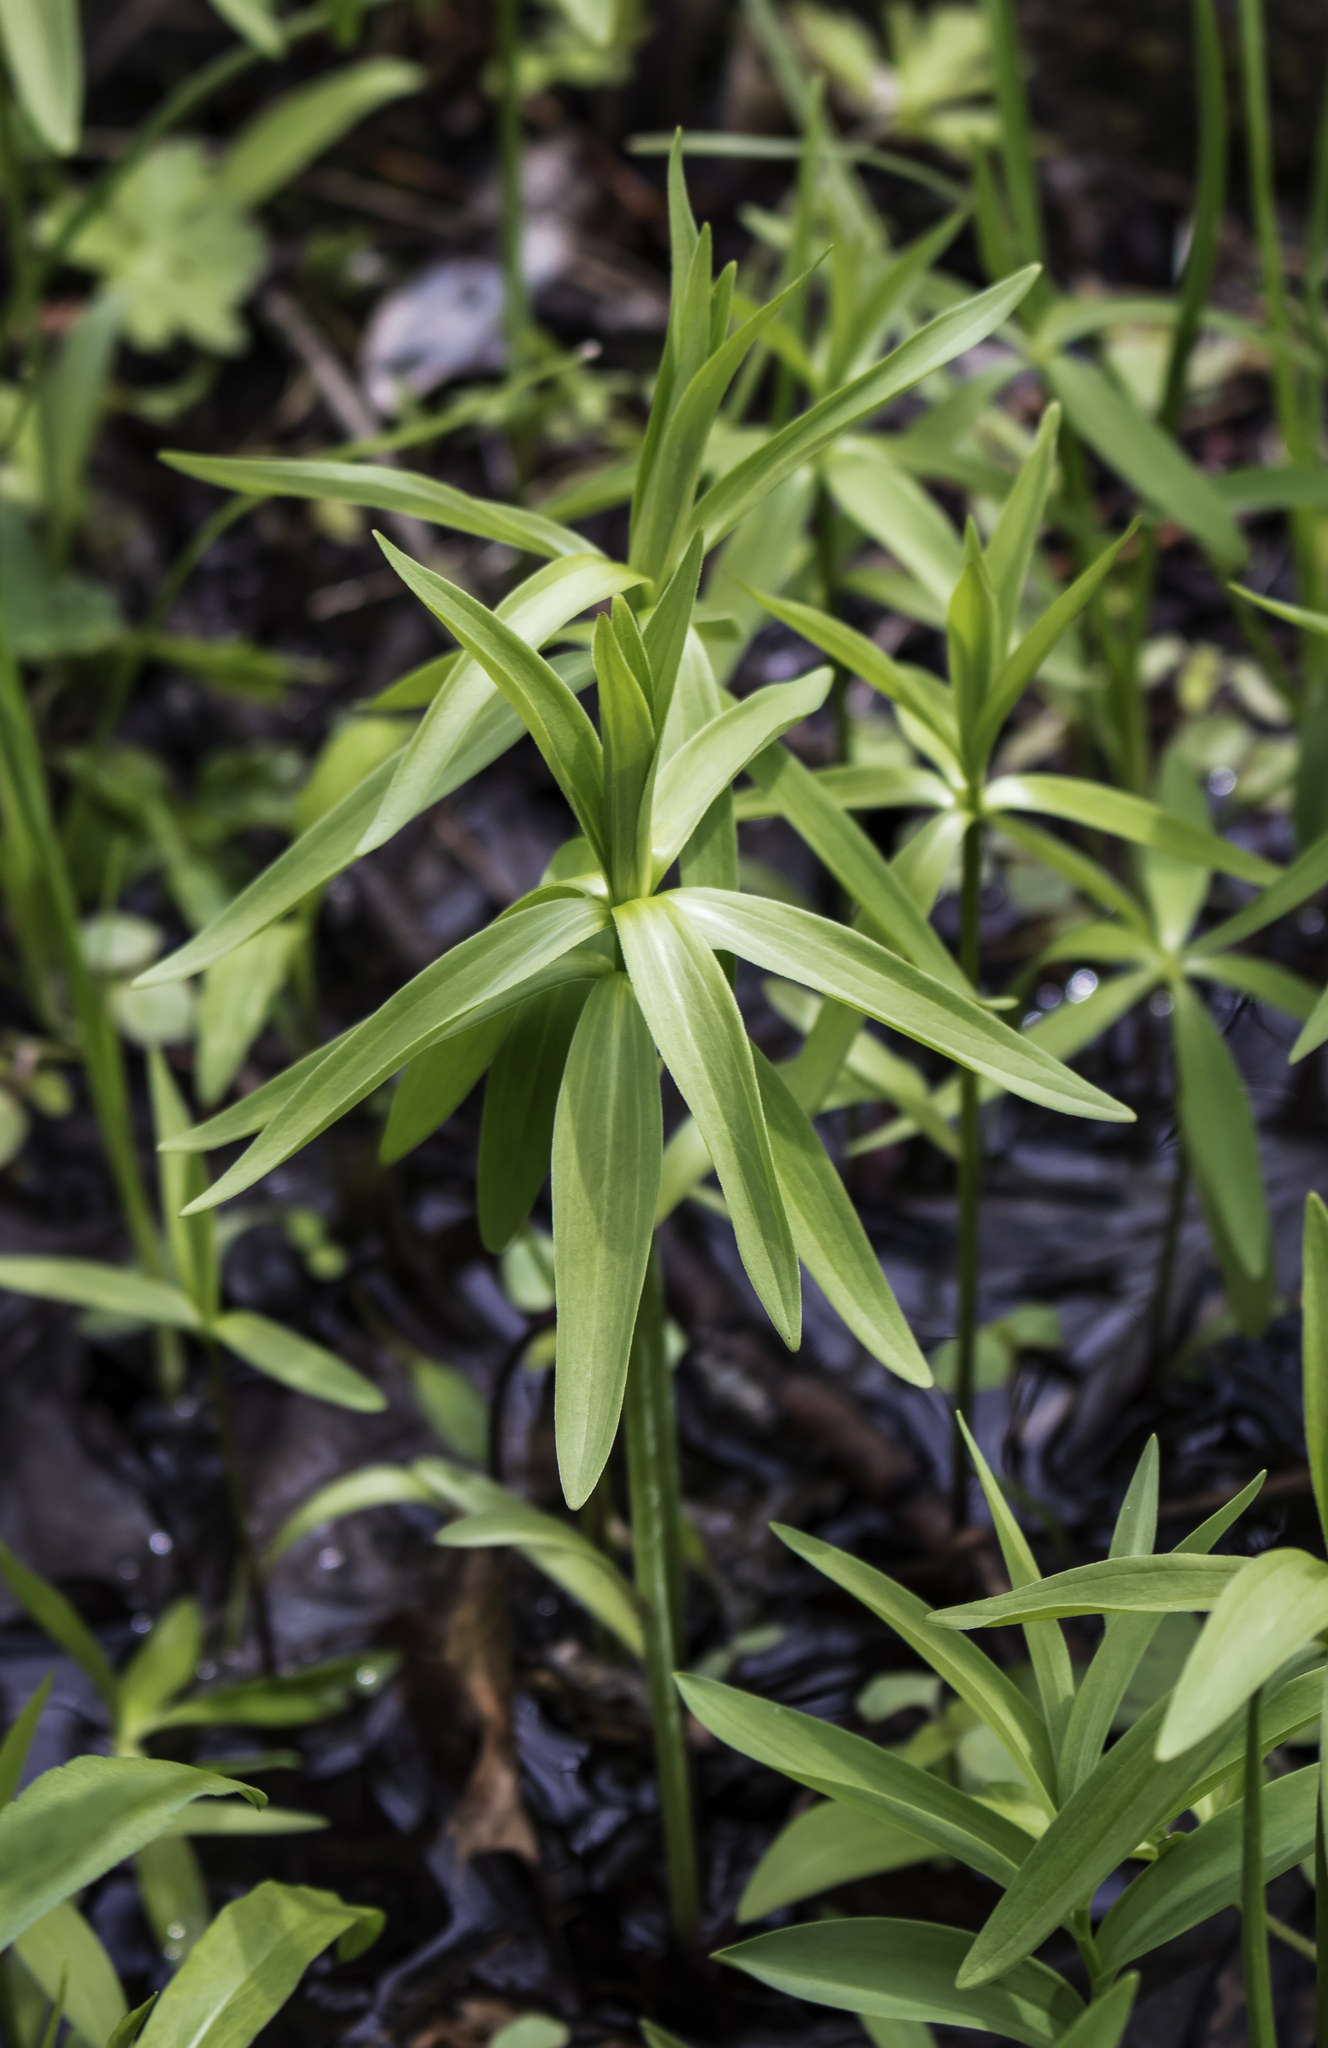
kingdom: Plantae
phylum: Tracheophyta
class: Liliopsida
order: Liliales
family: Liliaceae
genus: Lilium
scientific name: Lilium michiganense
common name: Michigan lily
